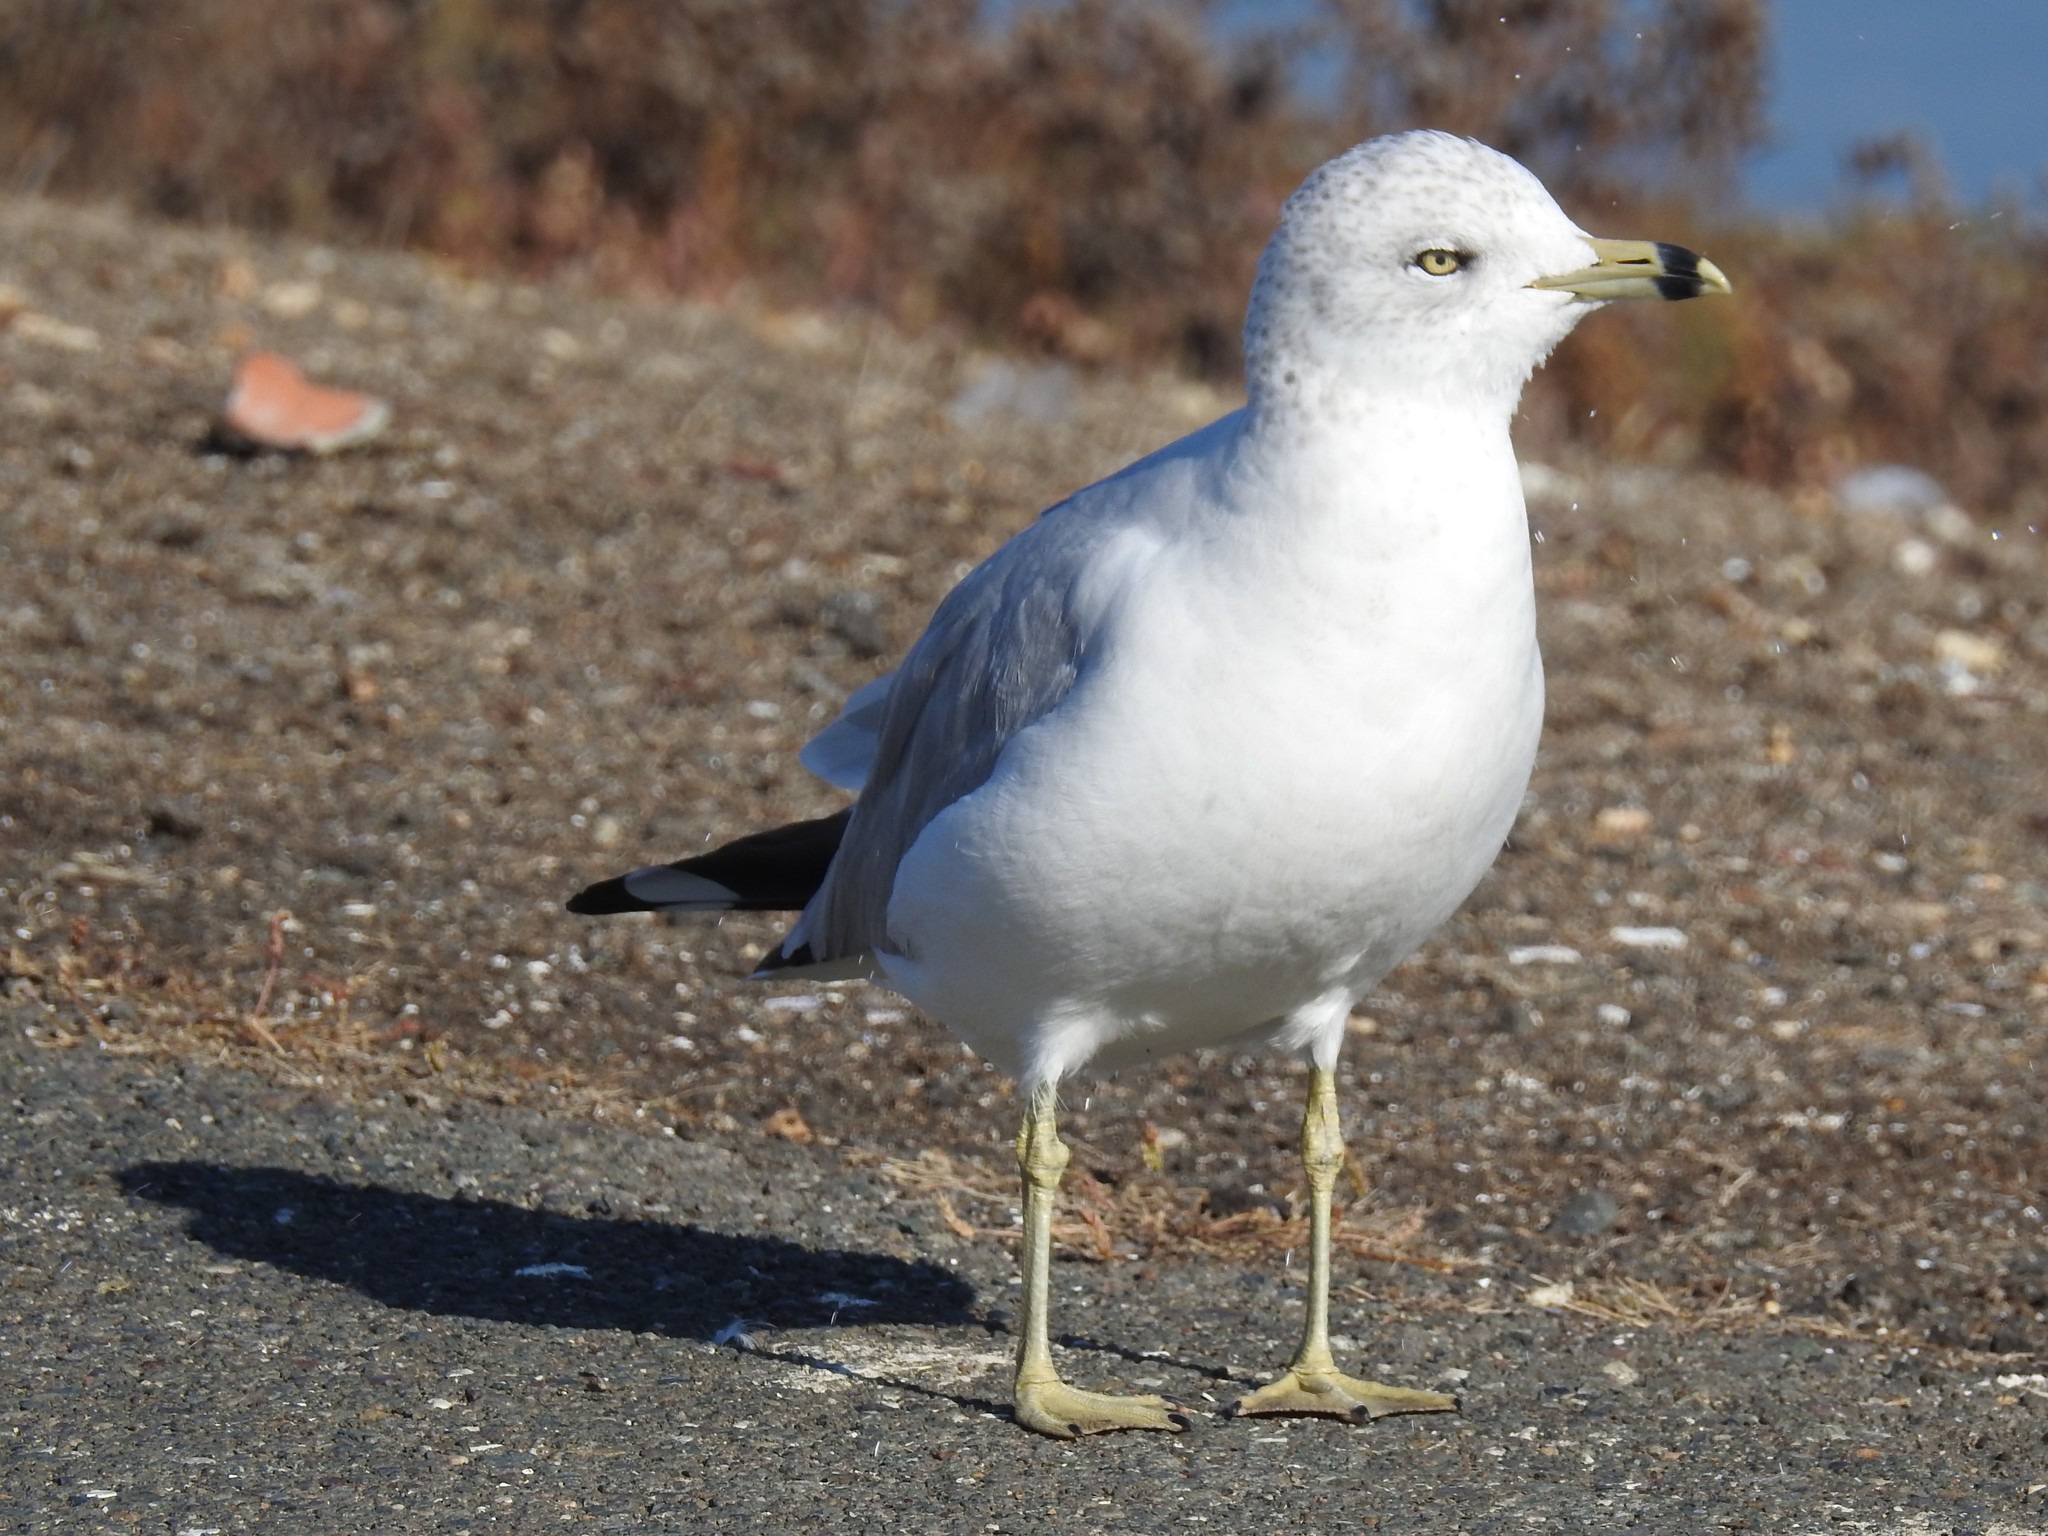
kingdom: Animalia
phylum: Chordata
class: Aves
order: Charadriiformes
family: Laridae
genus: Larus
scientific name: Larus delawarensis
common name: Ring-billed gull
